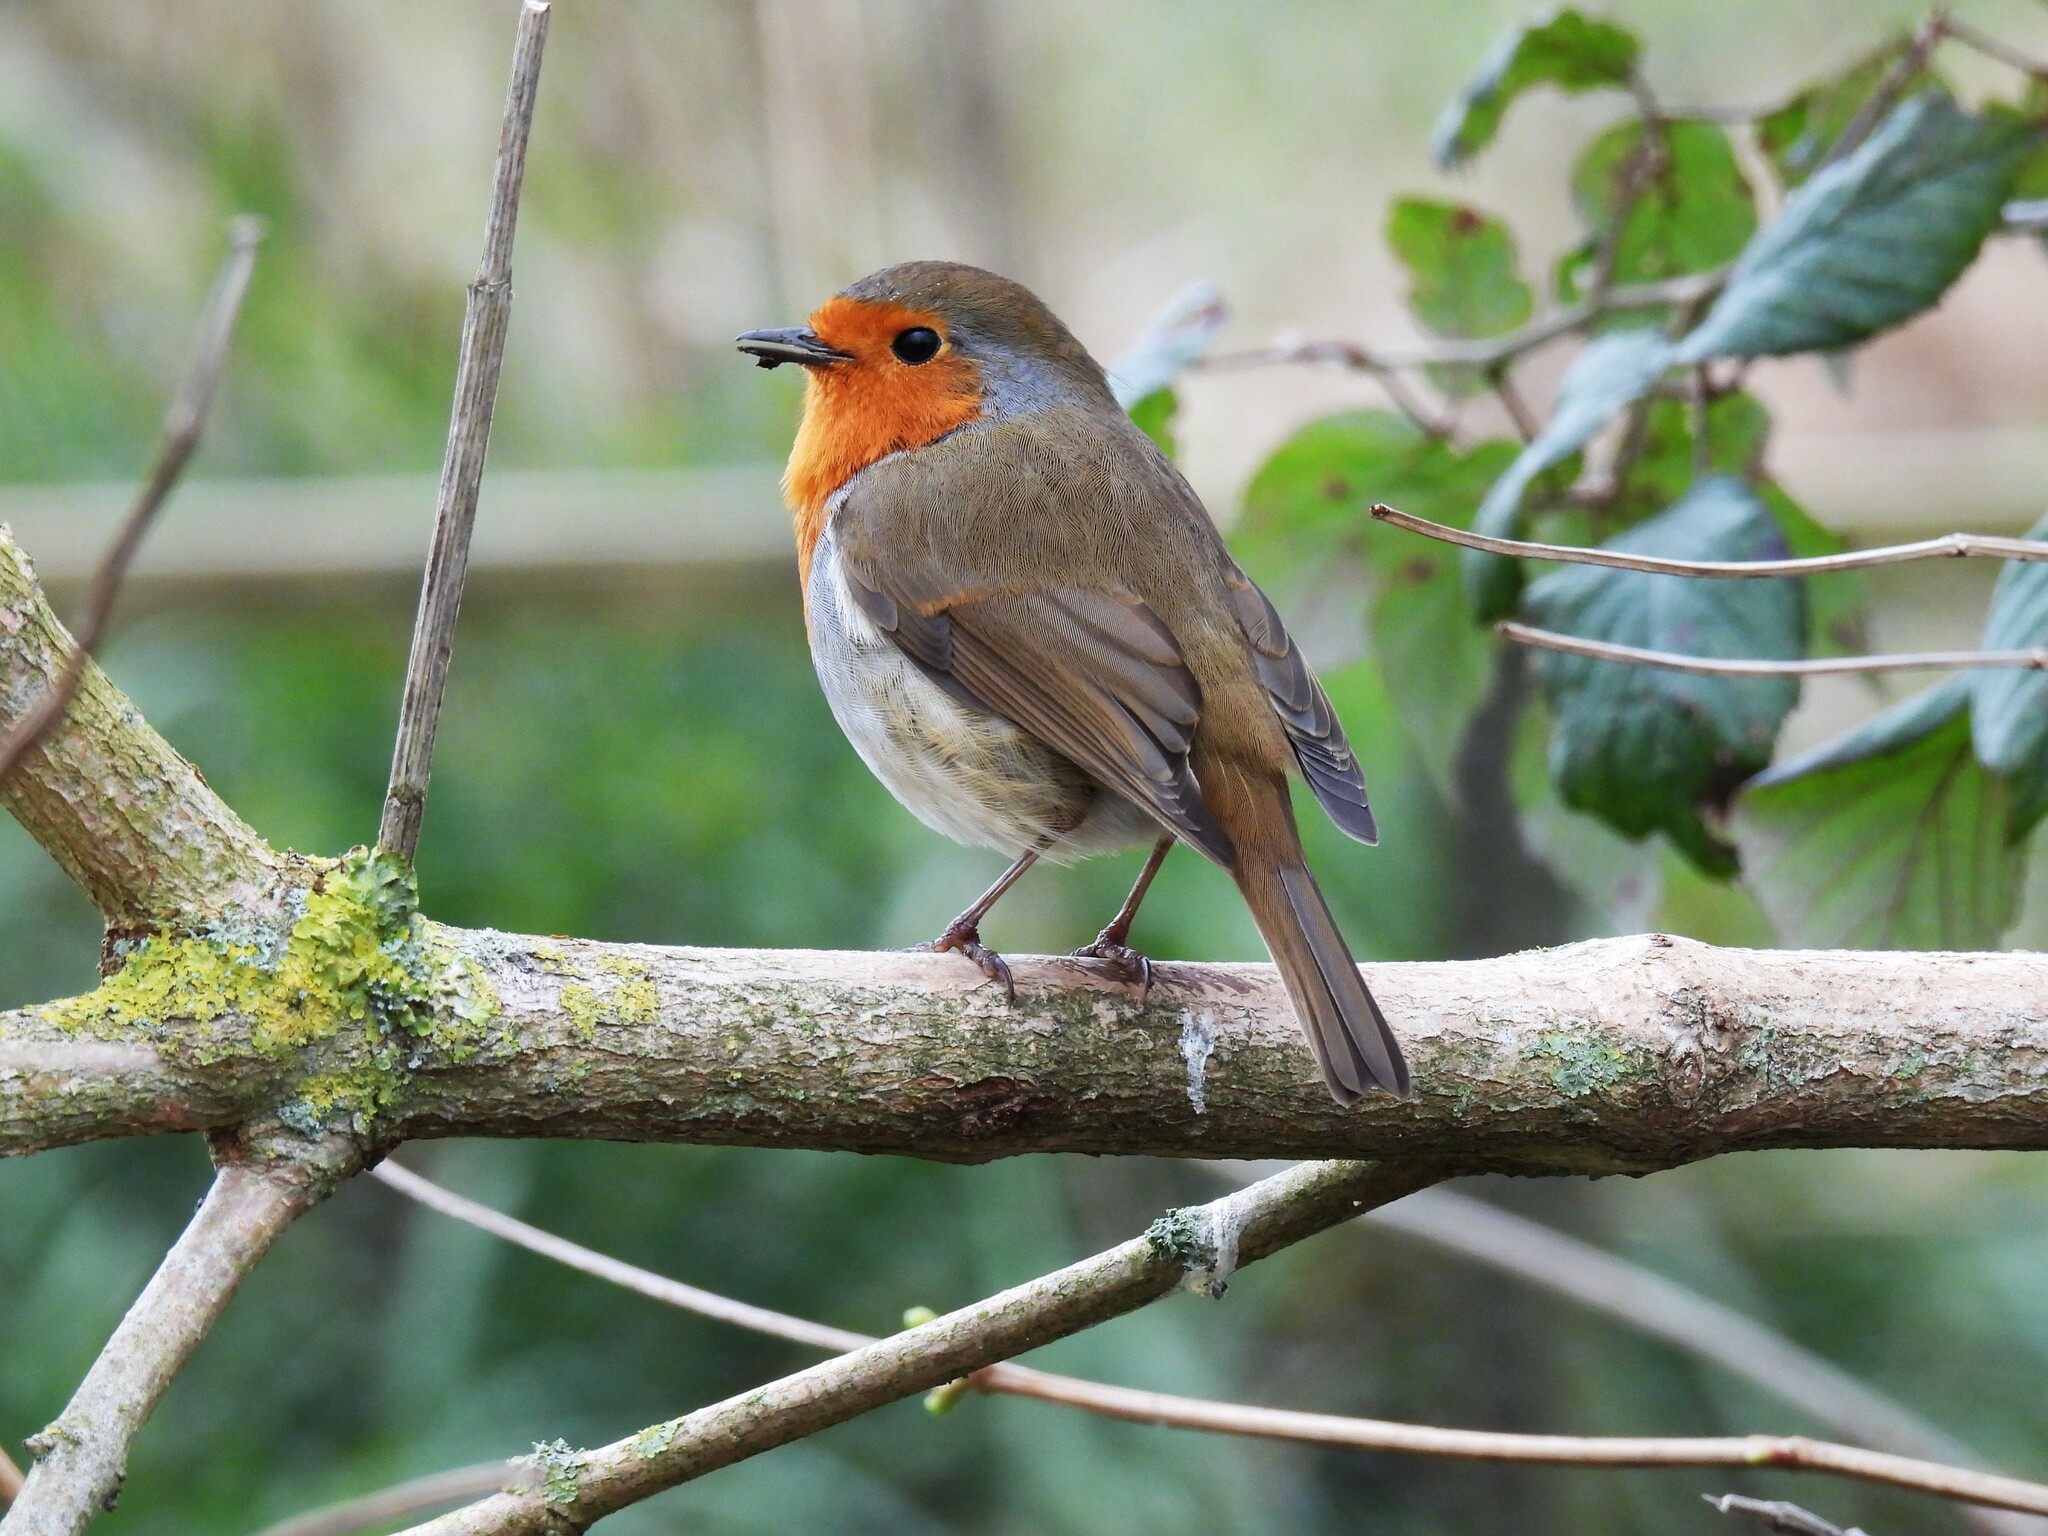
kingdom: Animalia
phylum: Chordata
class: Aves
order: Passeriformes
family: Muscicapidae
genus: Erithacus
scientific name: Erithacus rubecula
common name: European robin
